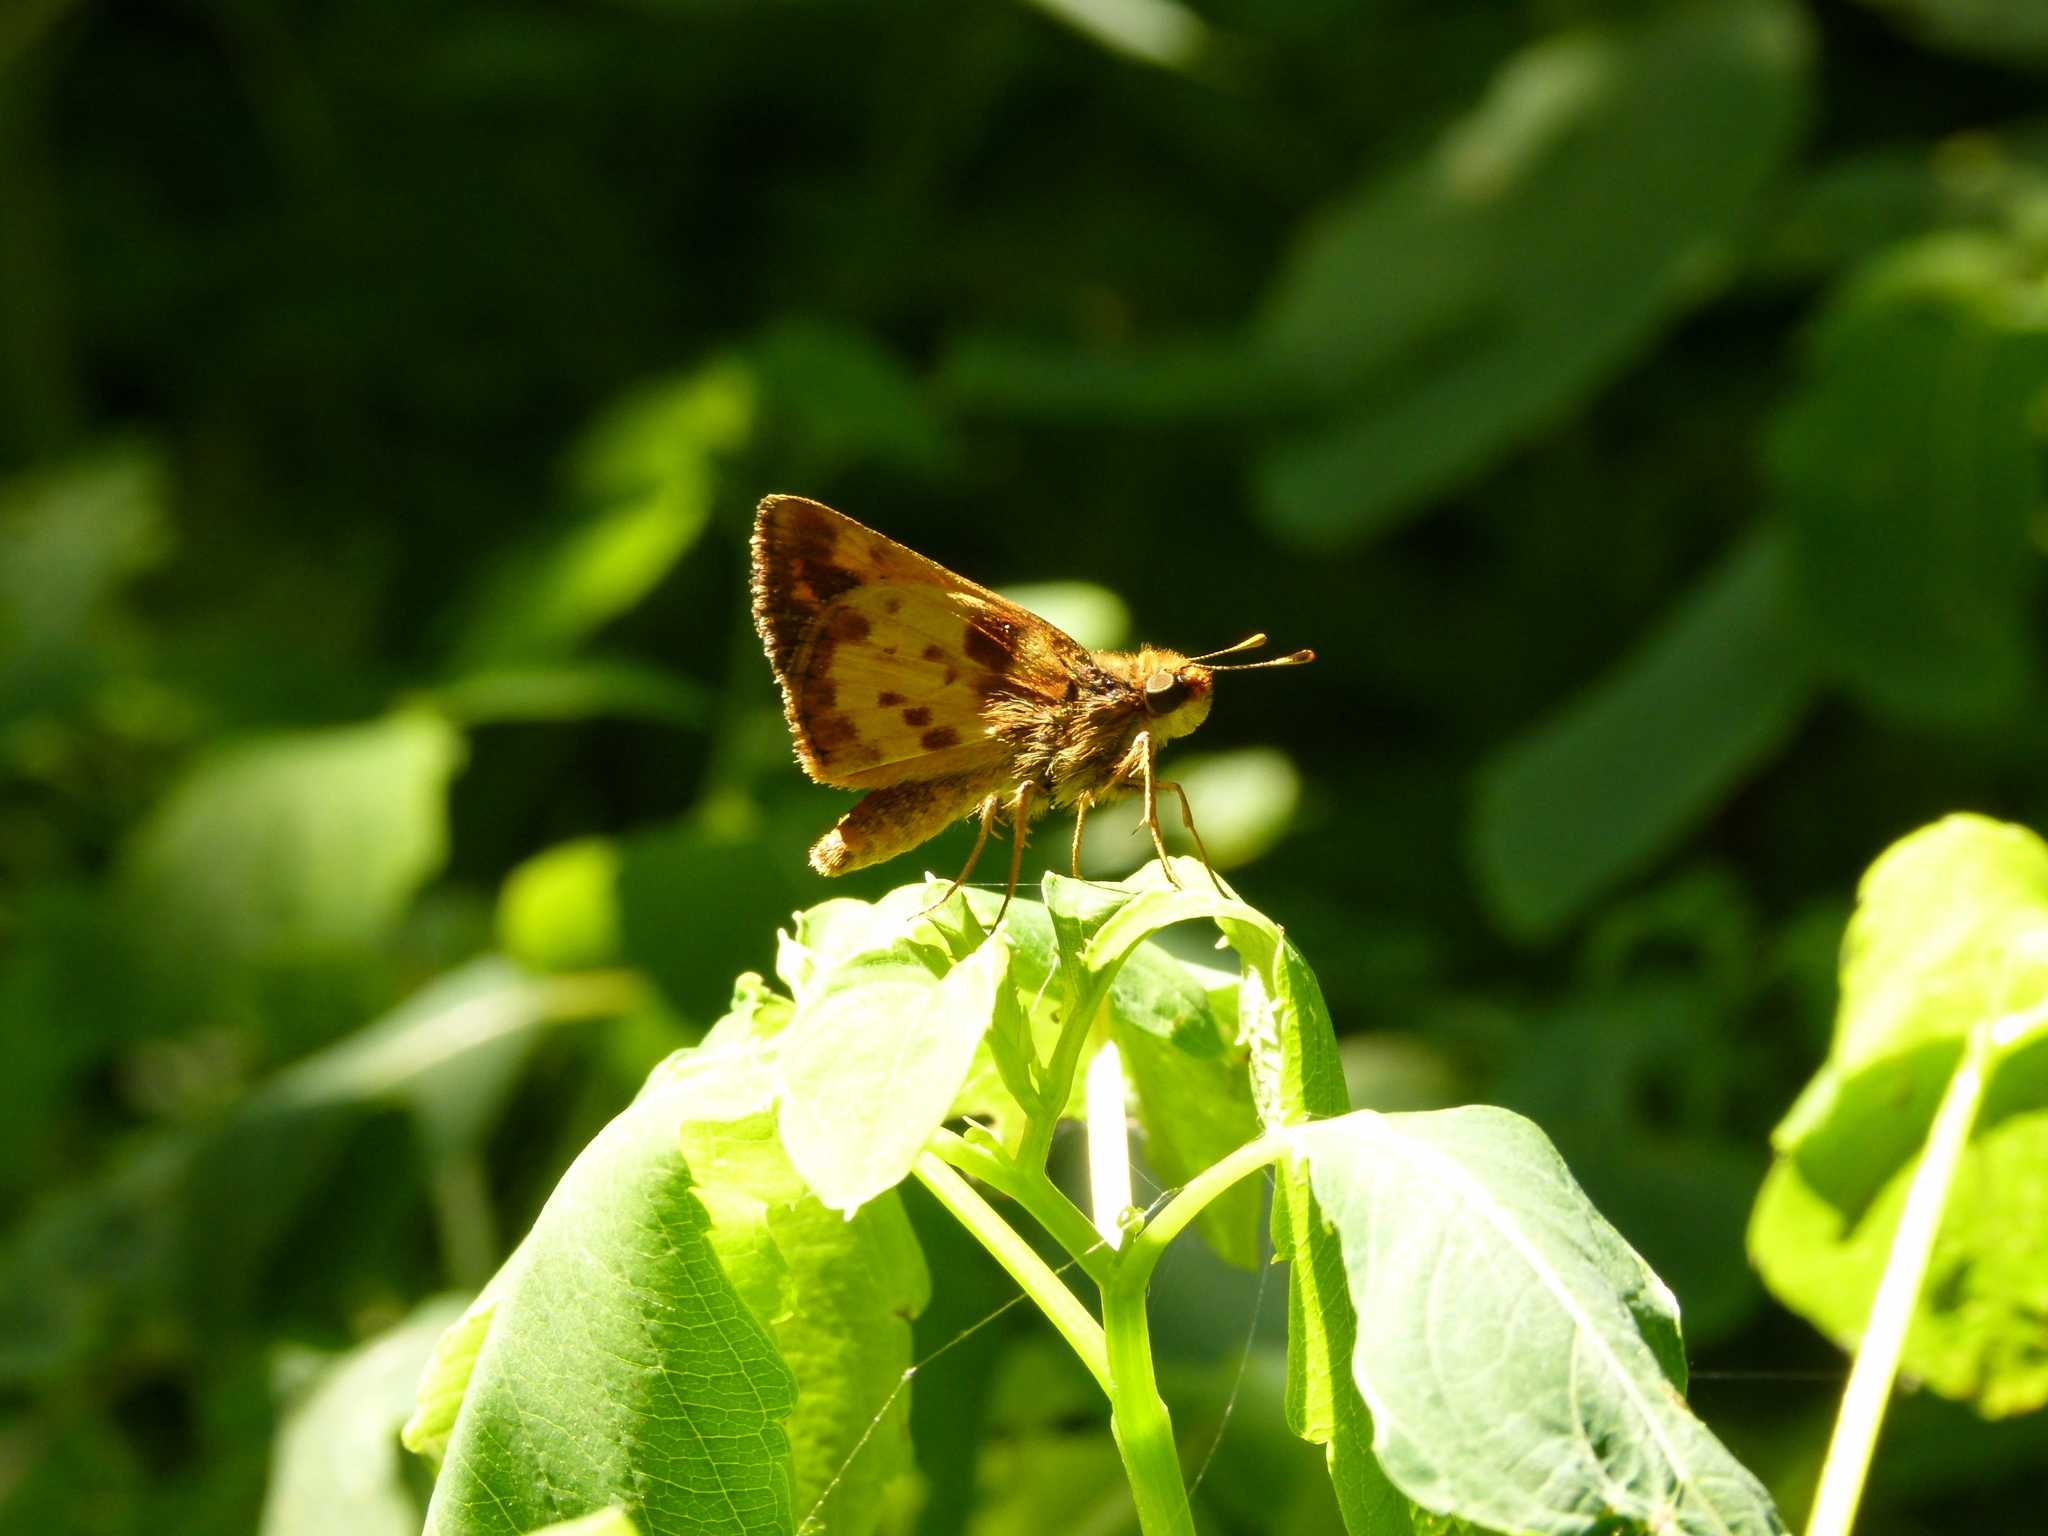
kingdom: Animalia
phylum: Arthropoda
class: Insecta
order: Lepidoptera
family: Hesperiidae
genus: Lon
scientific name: Lon zabulon
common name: Zabulon skipper
